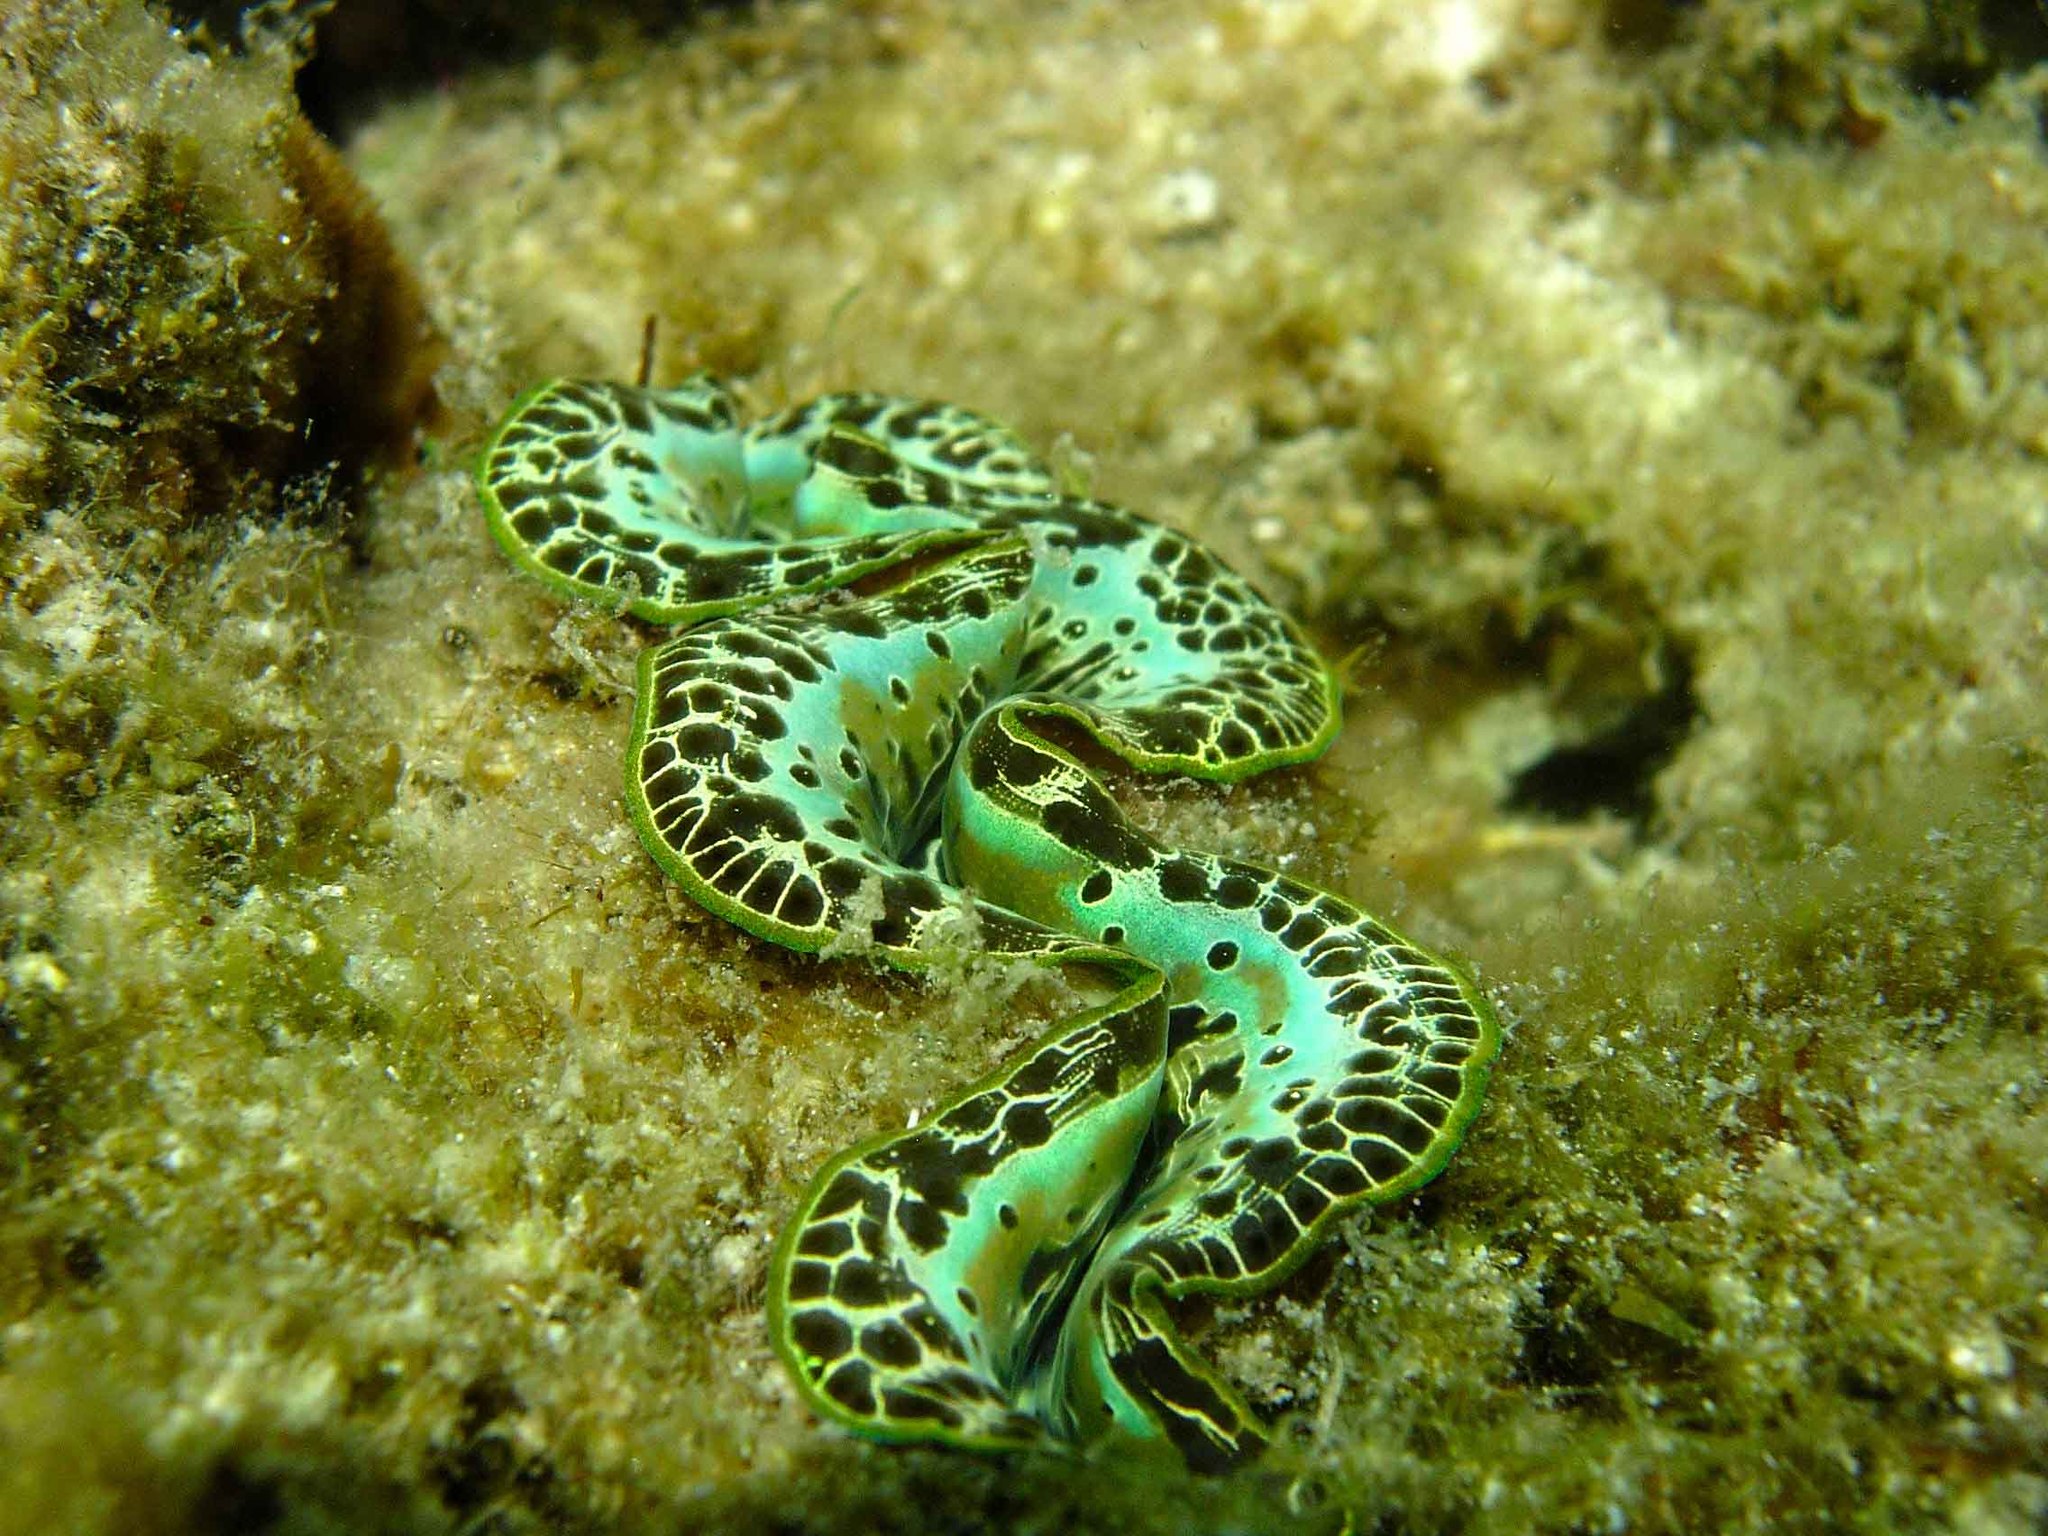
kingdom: Animalia
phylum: Mollusca
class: Bivalvia
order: Cardiida
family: Cardiidae
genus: Tridacna
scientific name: Tridacna maxima
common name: Small giant clam
